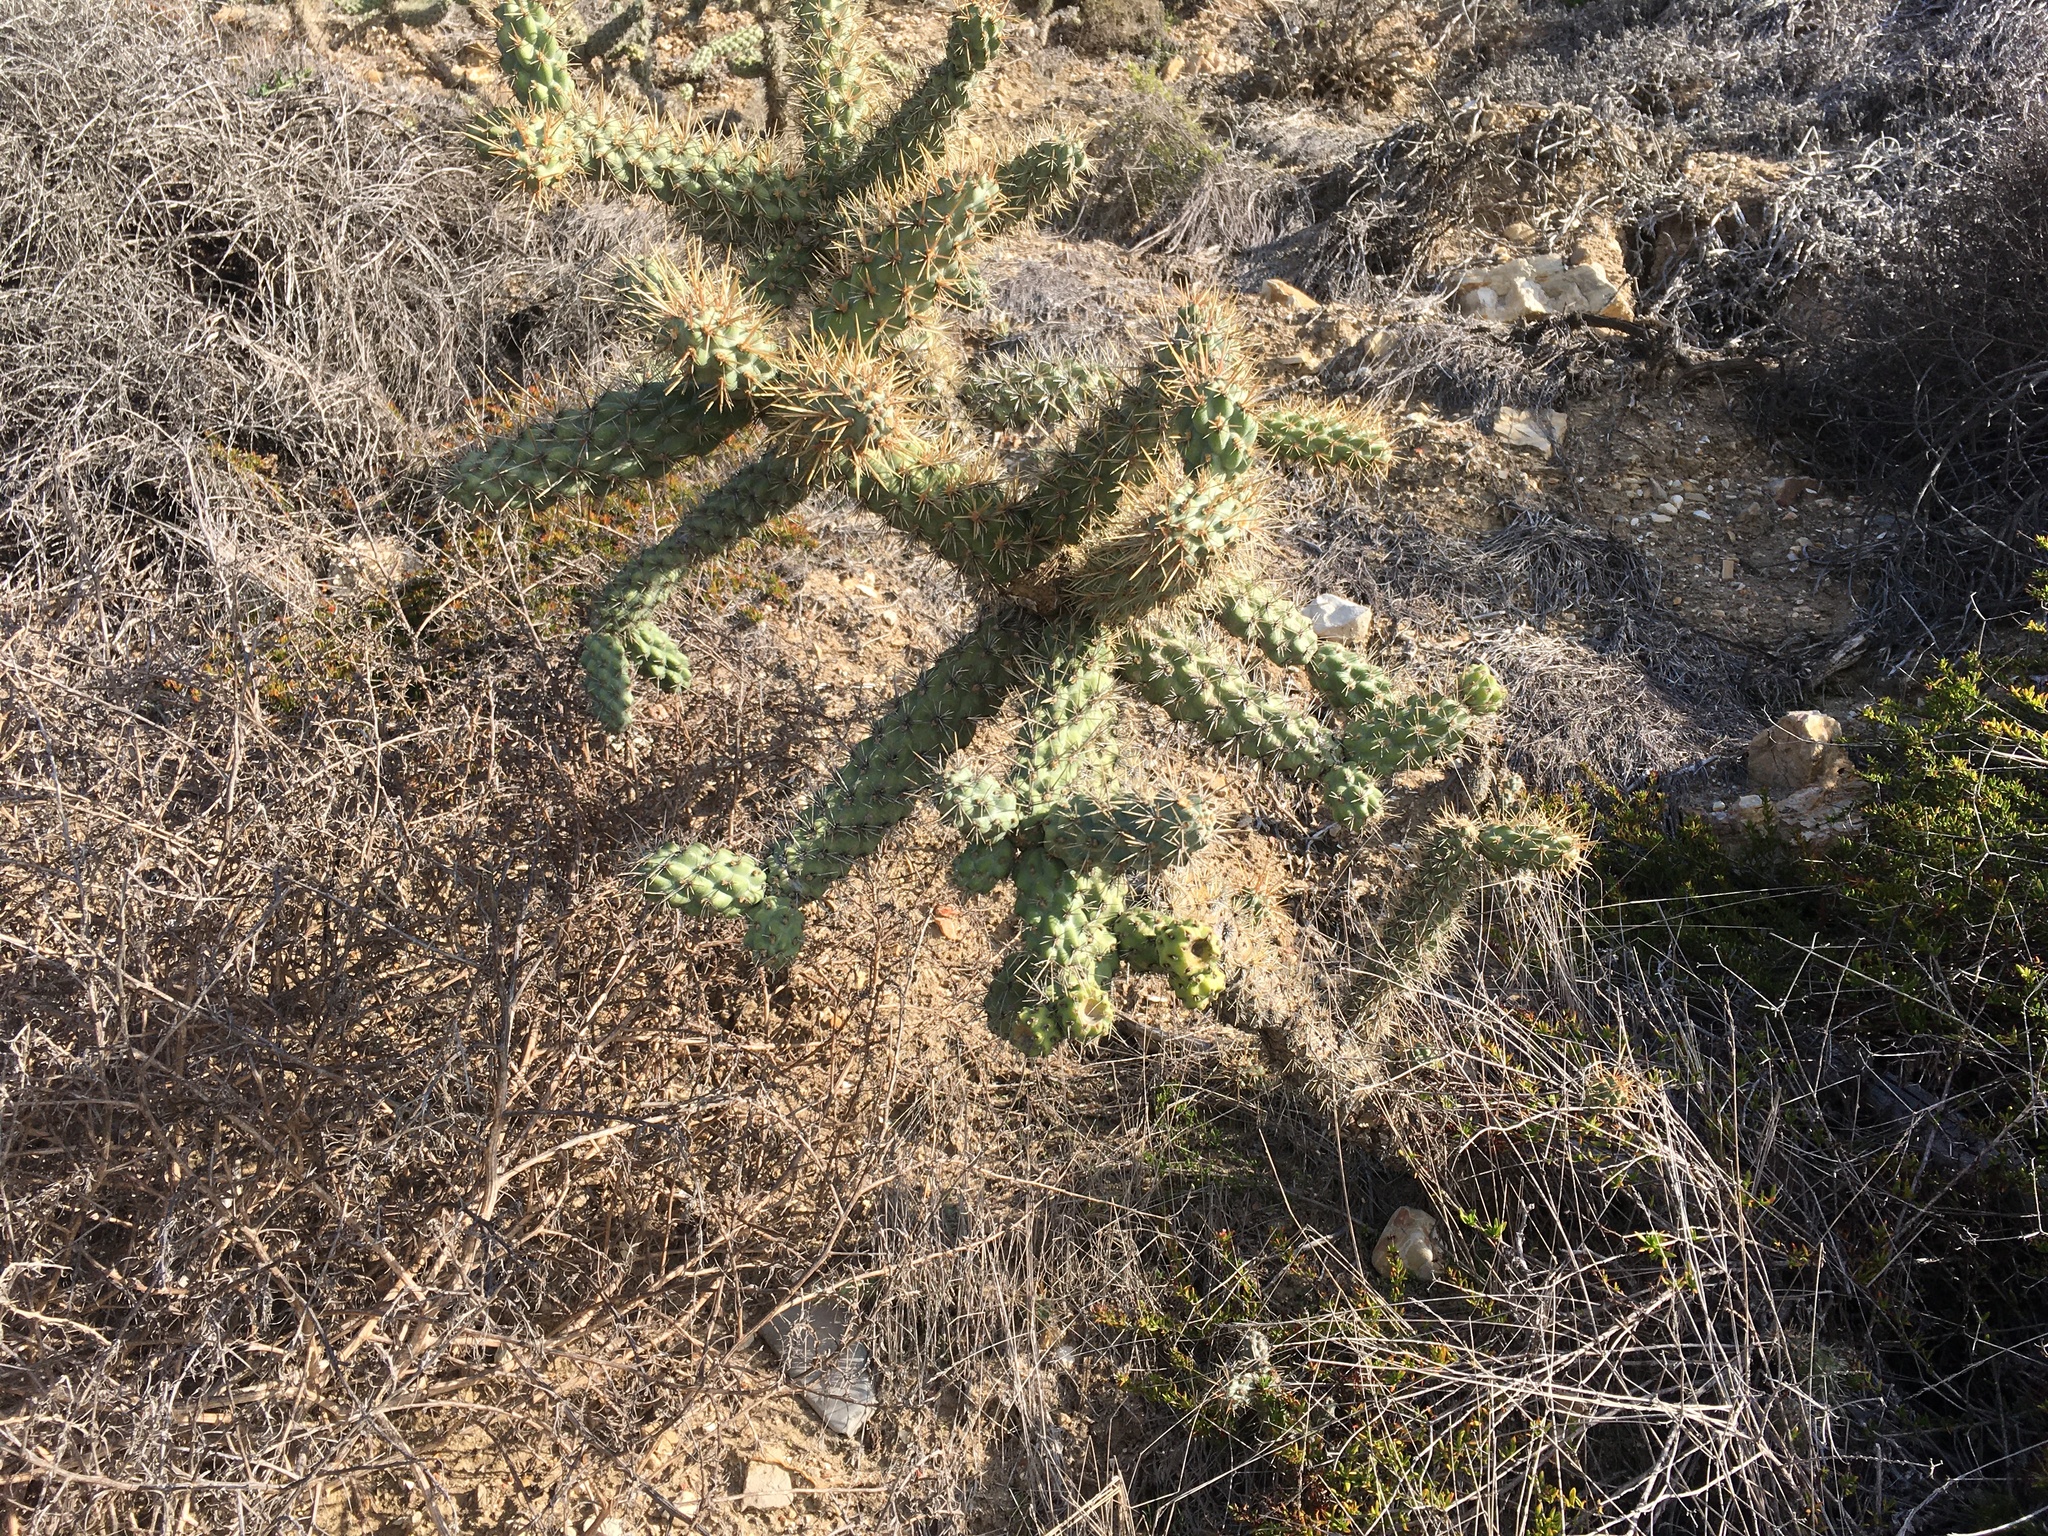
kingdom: Plantae
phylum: Tracheophyta
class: Magnoliopsida
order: Caryophyllales
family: Cactaceae
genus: Cylindropuntia
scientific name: Cylindropuntia prolifera
